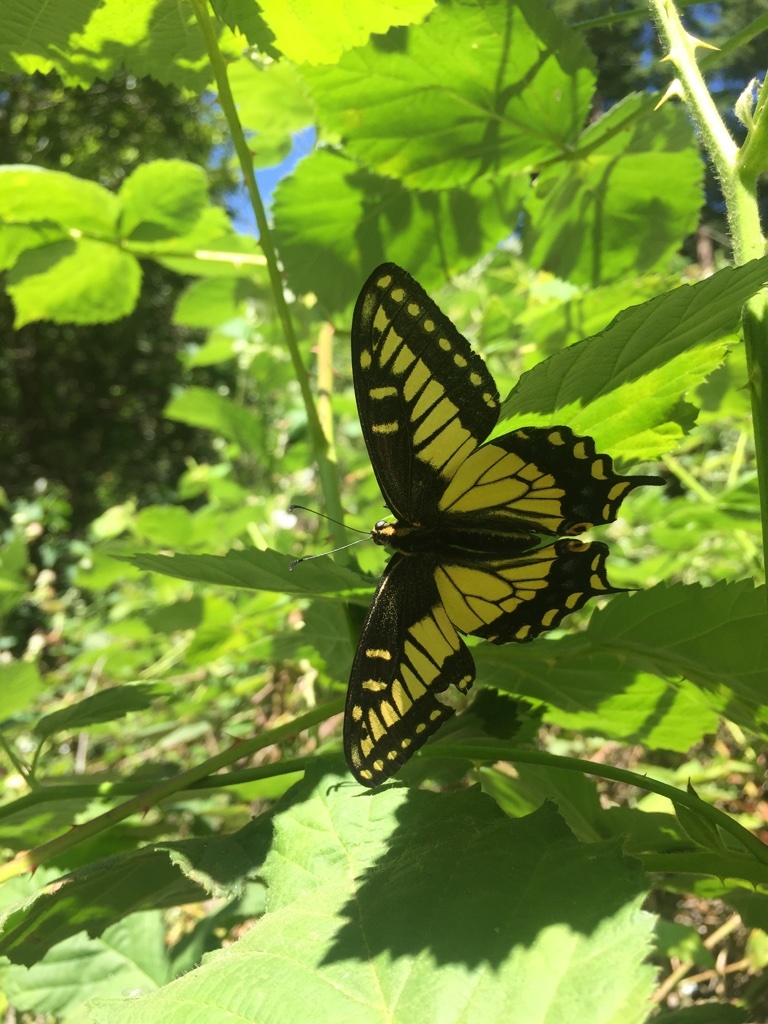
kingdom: Animalia
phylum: Arthropoda
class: Insecta
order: Lepidoptera
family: Papilionidae
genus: Papilio
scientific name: Papilio zelicaon
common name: Anise swallowtail
